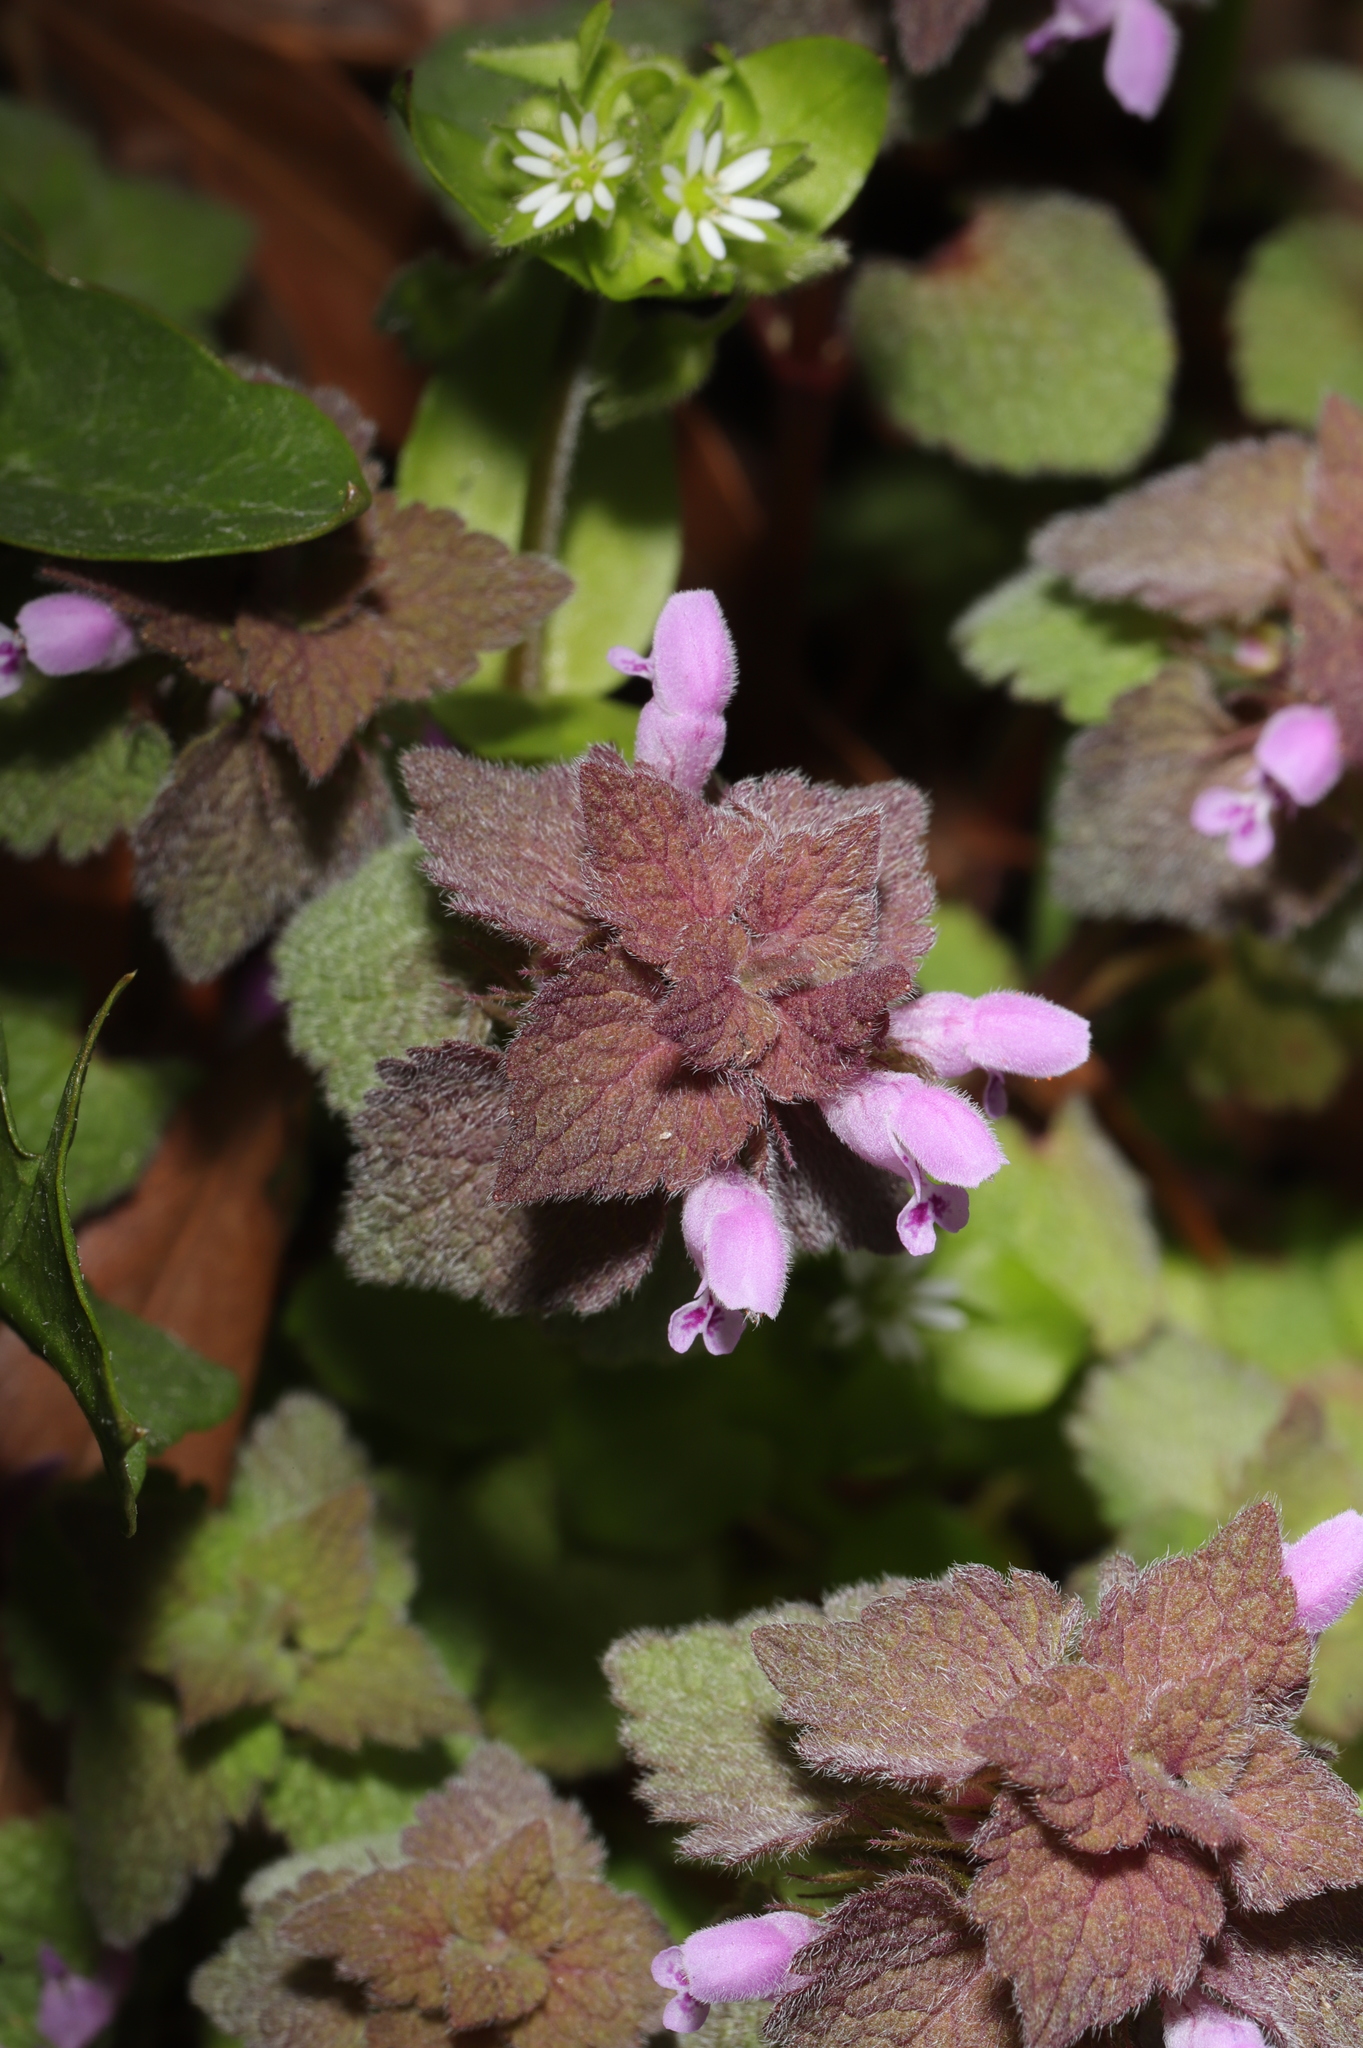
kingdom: Plantae
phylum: Tracheophyta
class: Magnoliopsida
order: Lamiales
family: Lamiaceae
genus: Lamium
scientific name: Lamium purpureum
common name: Red dead-nettle
